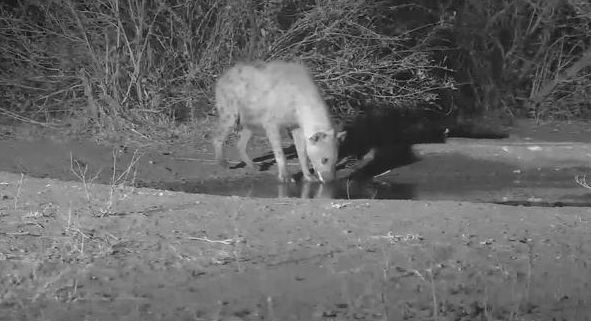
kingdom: Animalia
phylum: Chordata
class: Mammalia
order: Carnivora
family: Hyaenidae
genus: Crocuta
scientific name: Crocuta crocuta
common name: Spotted hyaena
